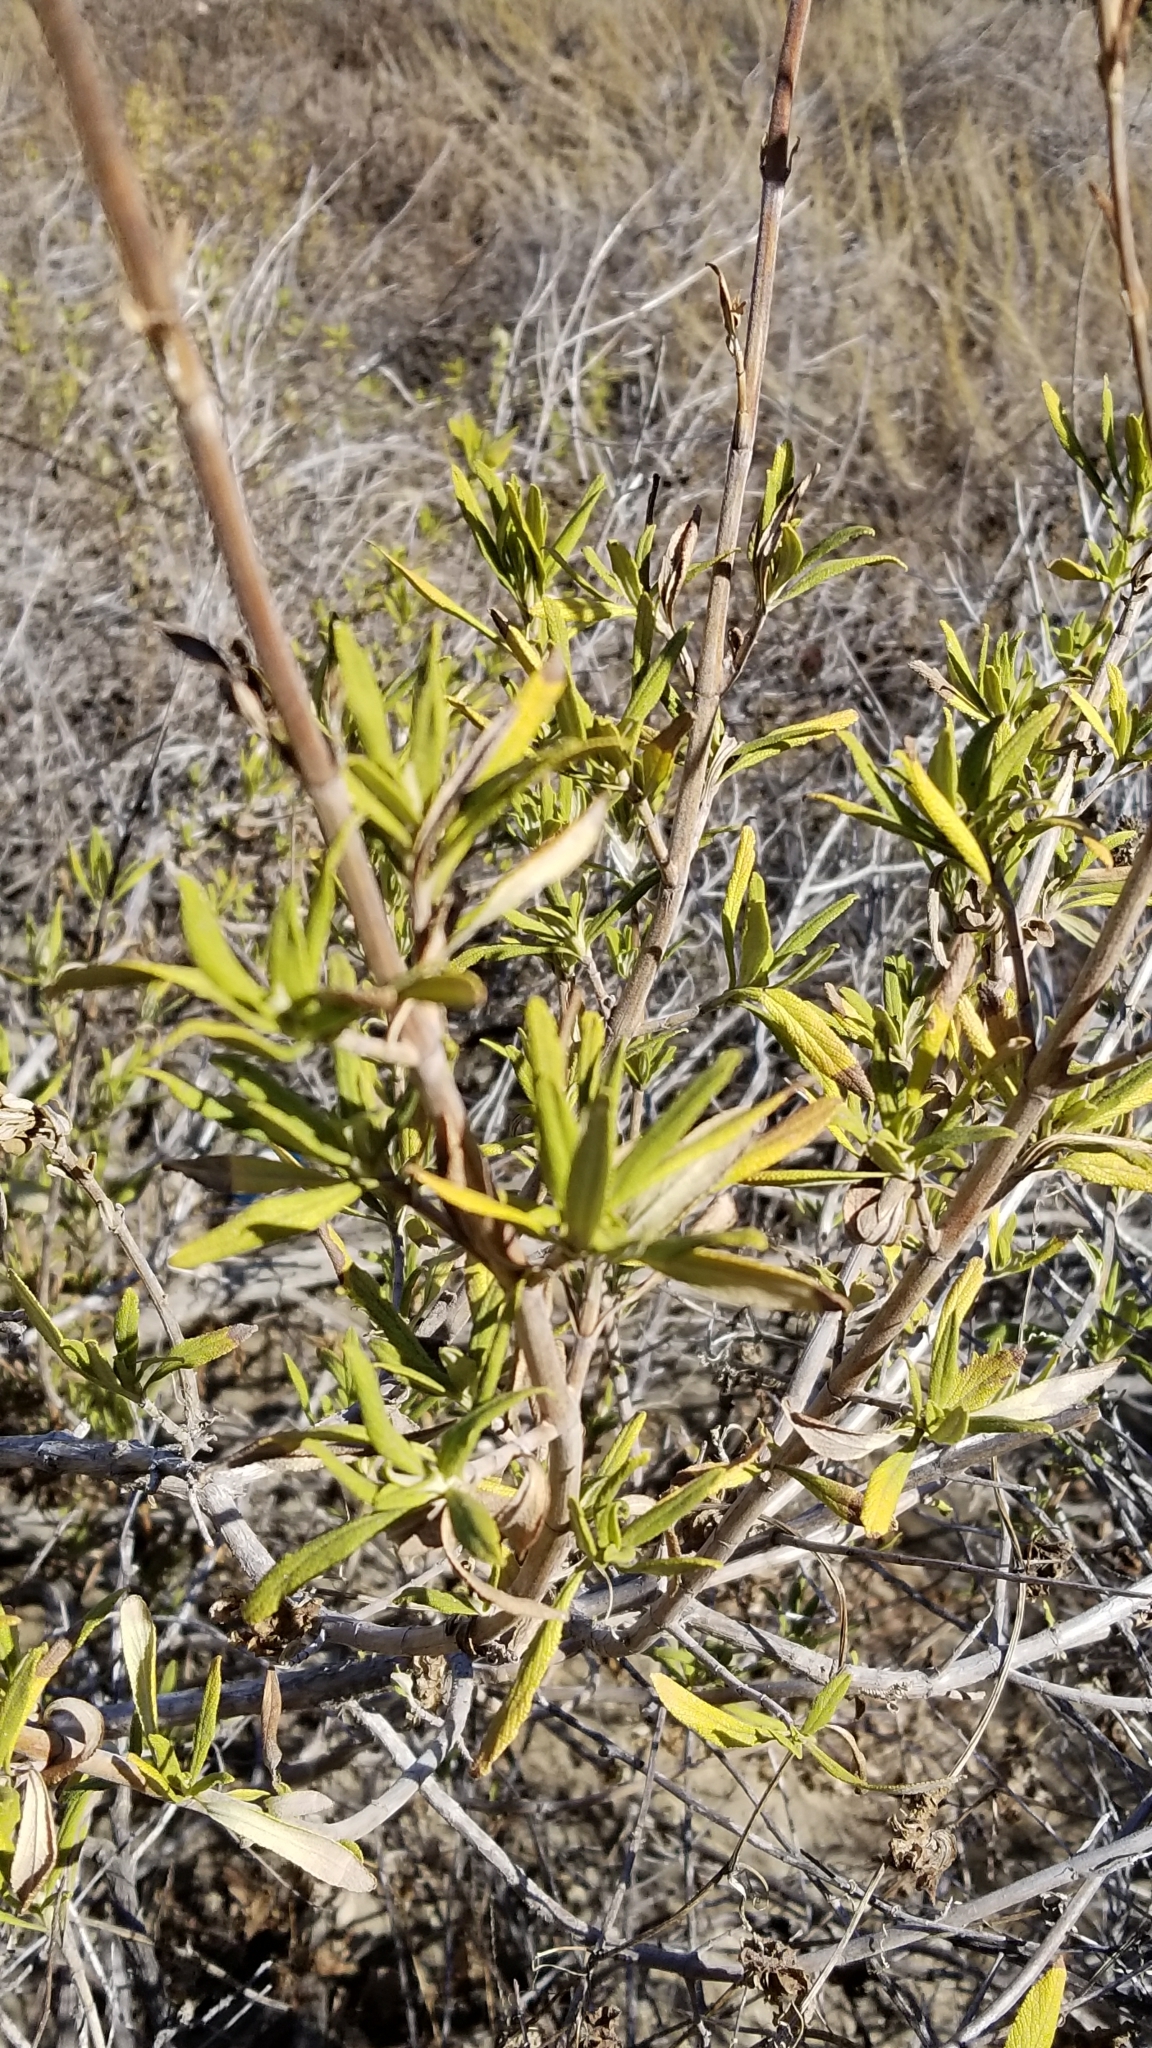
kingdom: Plantae
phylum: Tracheophyta
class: Magnoliopsida
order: Lamiales
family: Lamiaceae
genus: Salvia
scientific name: Salvia mellifera
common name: Black sage
